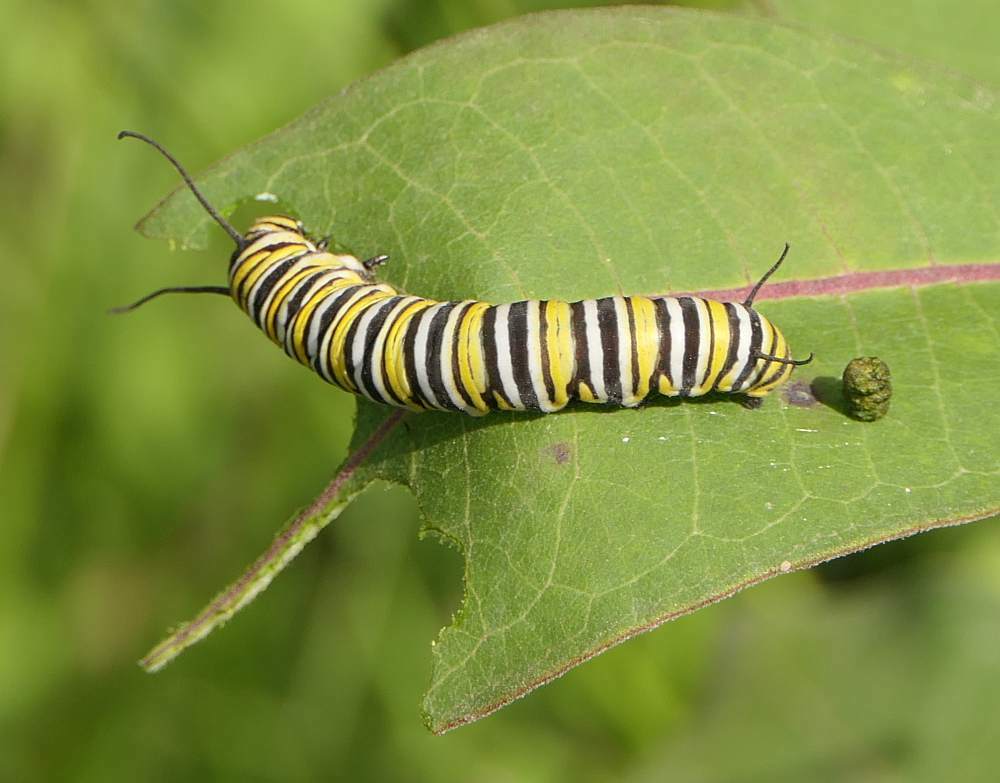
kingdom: Animalia
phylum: Arthropoda
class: Insecta
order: Lepidoptera
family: Nymphalidae
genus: Danaus
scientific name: Danaus plexippus
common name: Monarch
